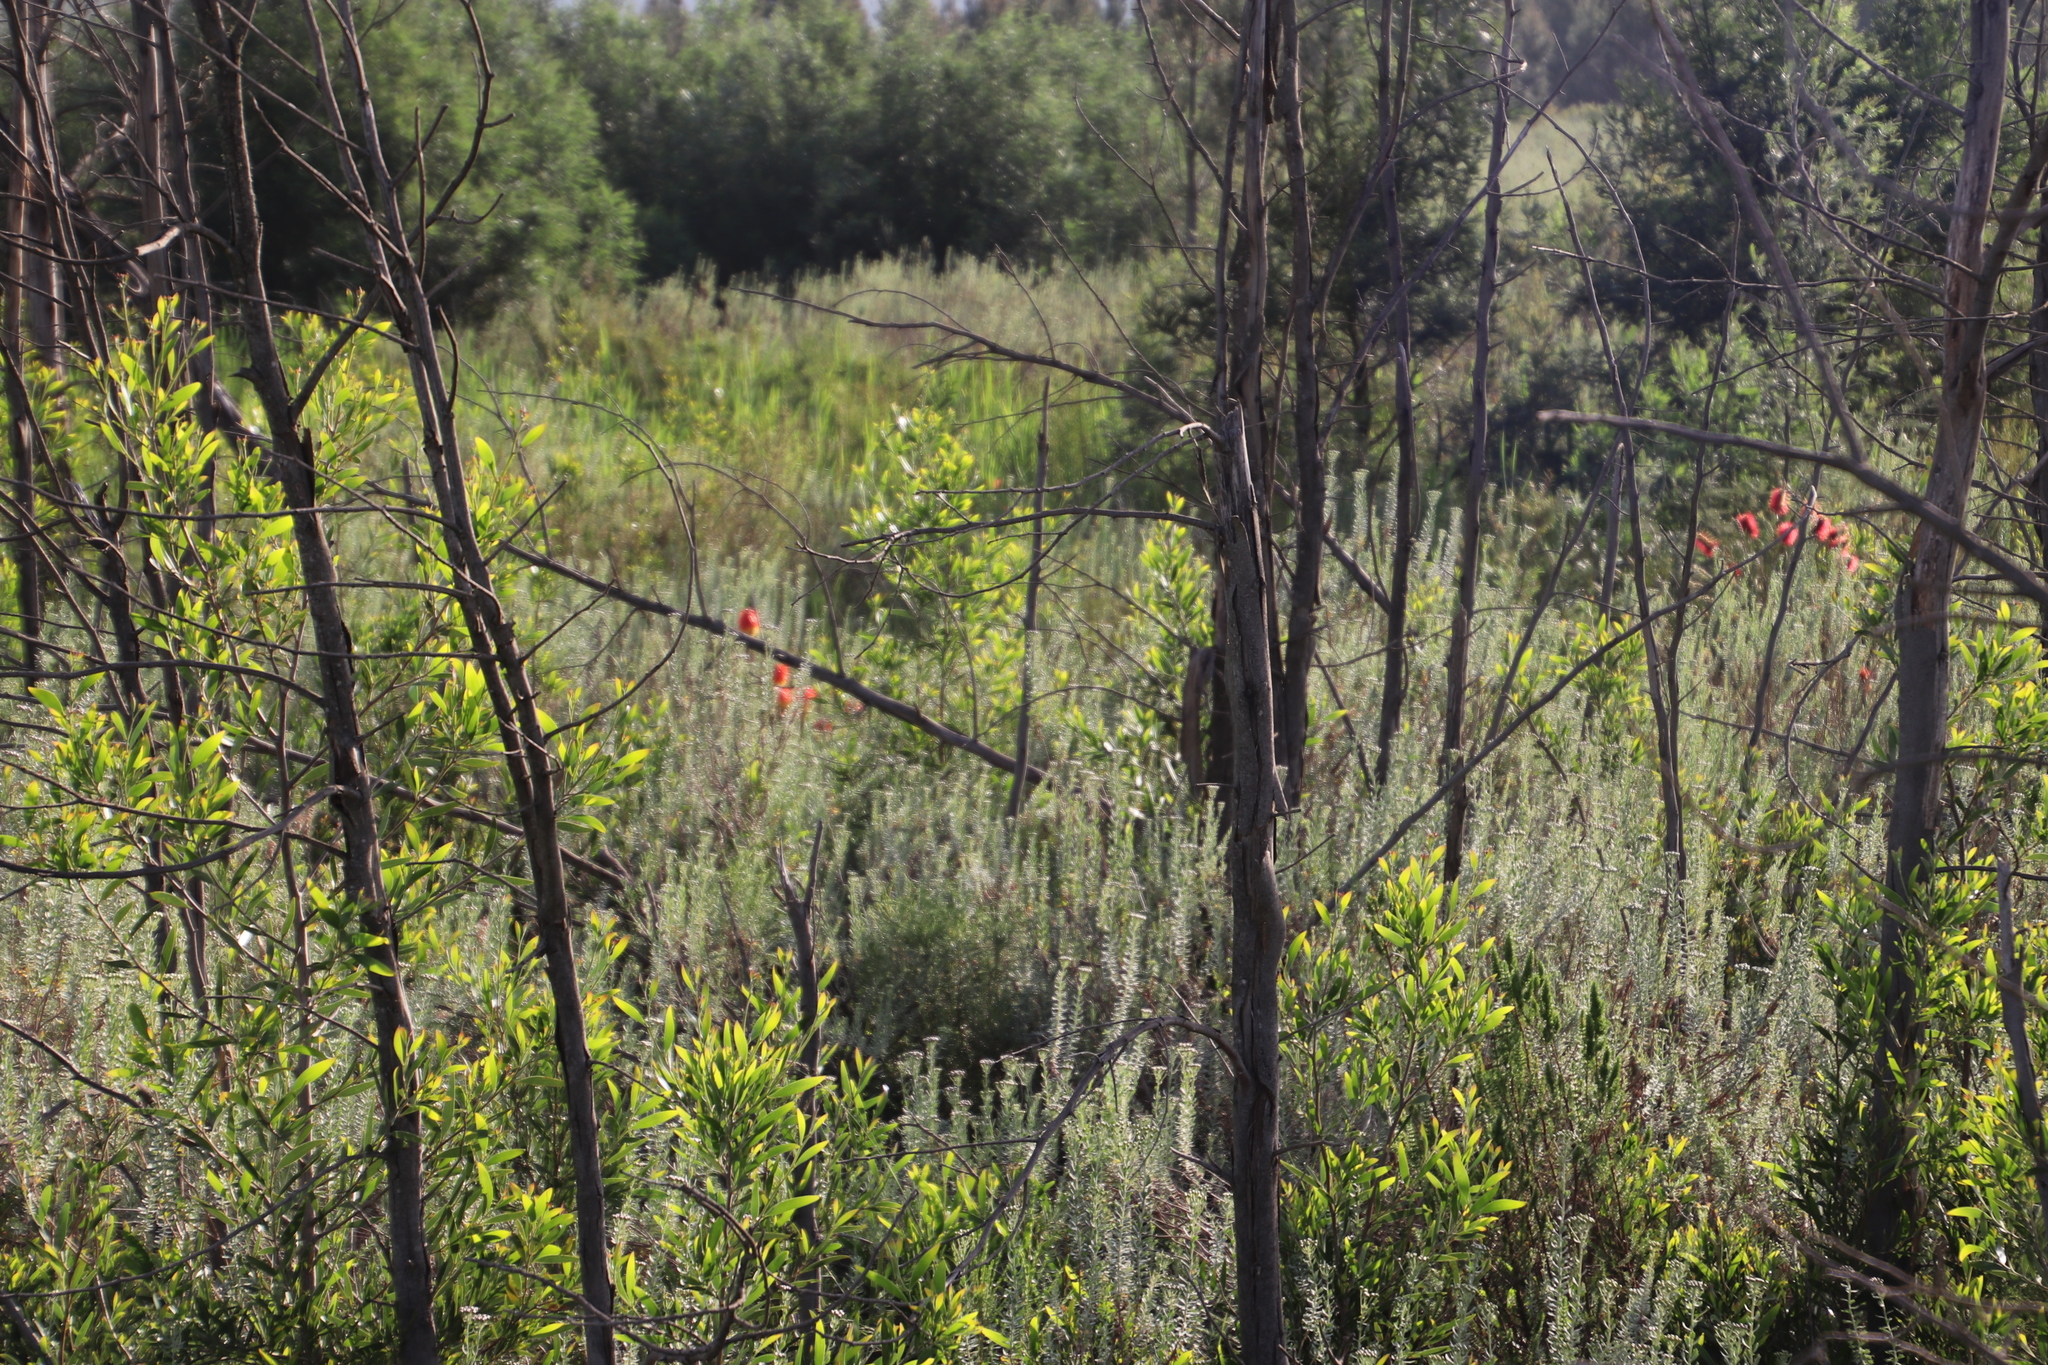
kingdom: Plantae
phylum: Tracheophyta
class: Magnoliopsida
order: Myrtales
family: Myrtaceae
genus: Callistemon
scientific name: Callistemon linearis
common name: Narrow-leaf bottlebrush
